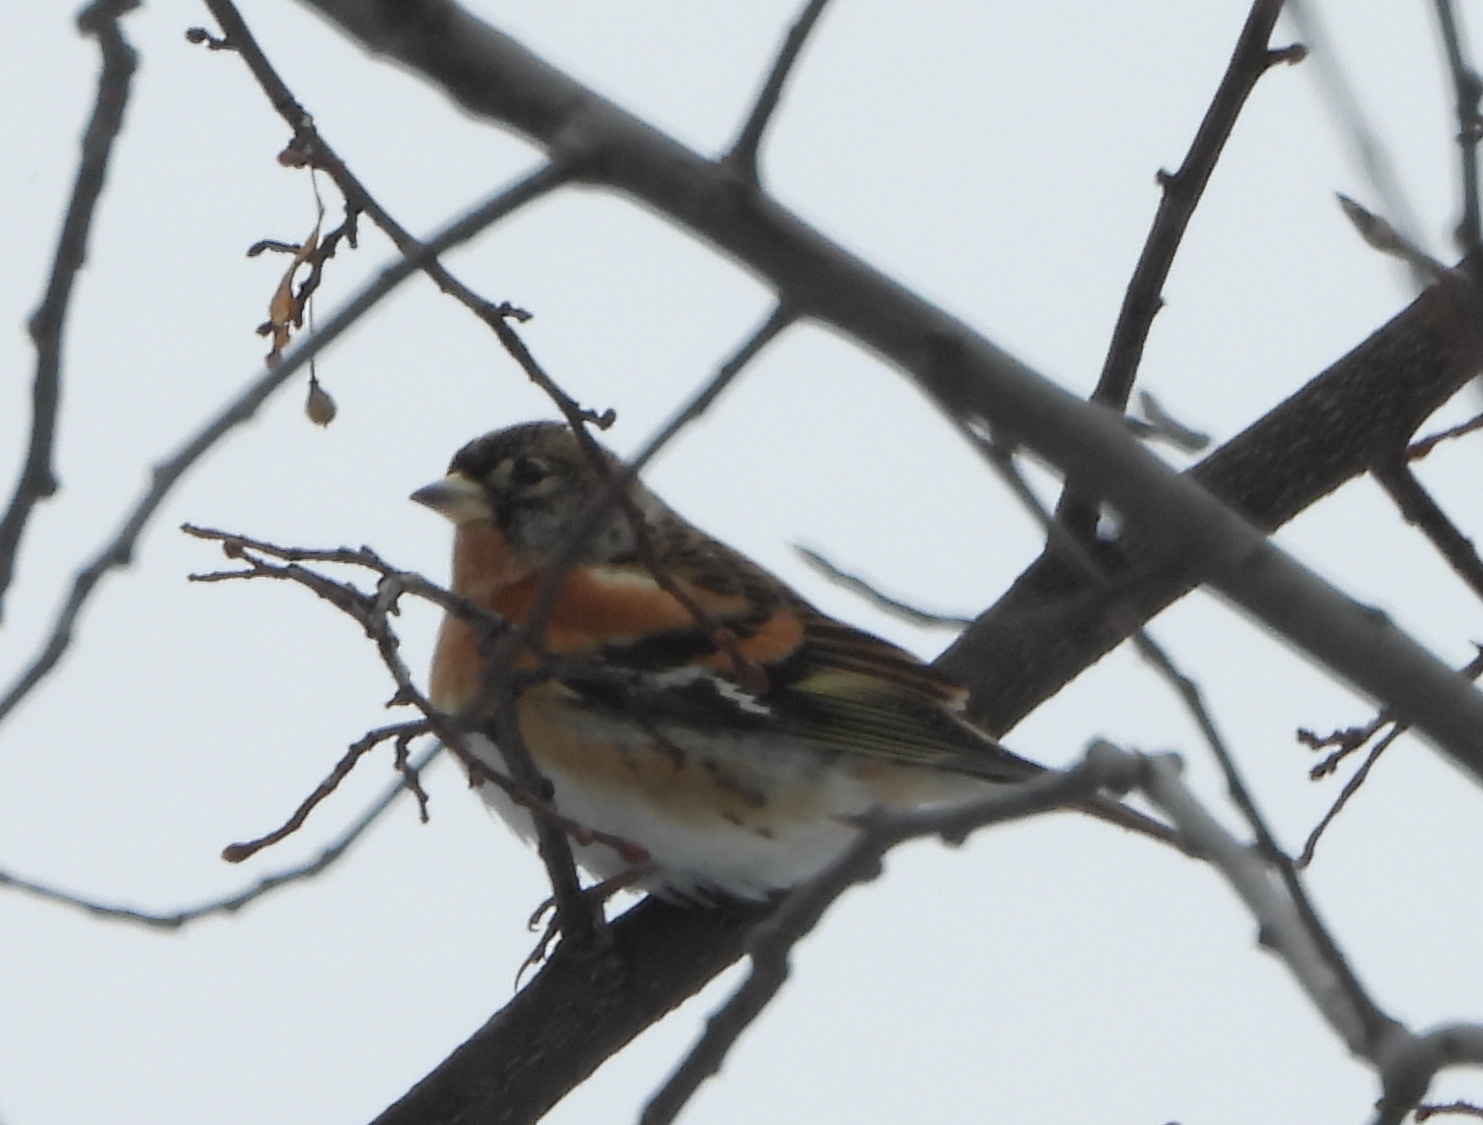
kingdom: Animalia
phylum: Chordata
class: Aves
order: Passeriformes
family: Fringillidae
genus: Fringilla
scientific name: Fringilla montifringilla
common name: Brambling
